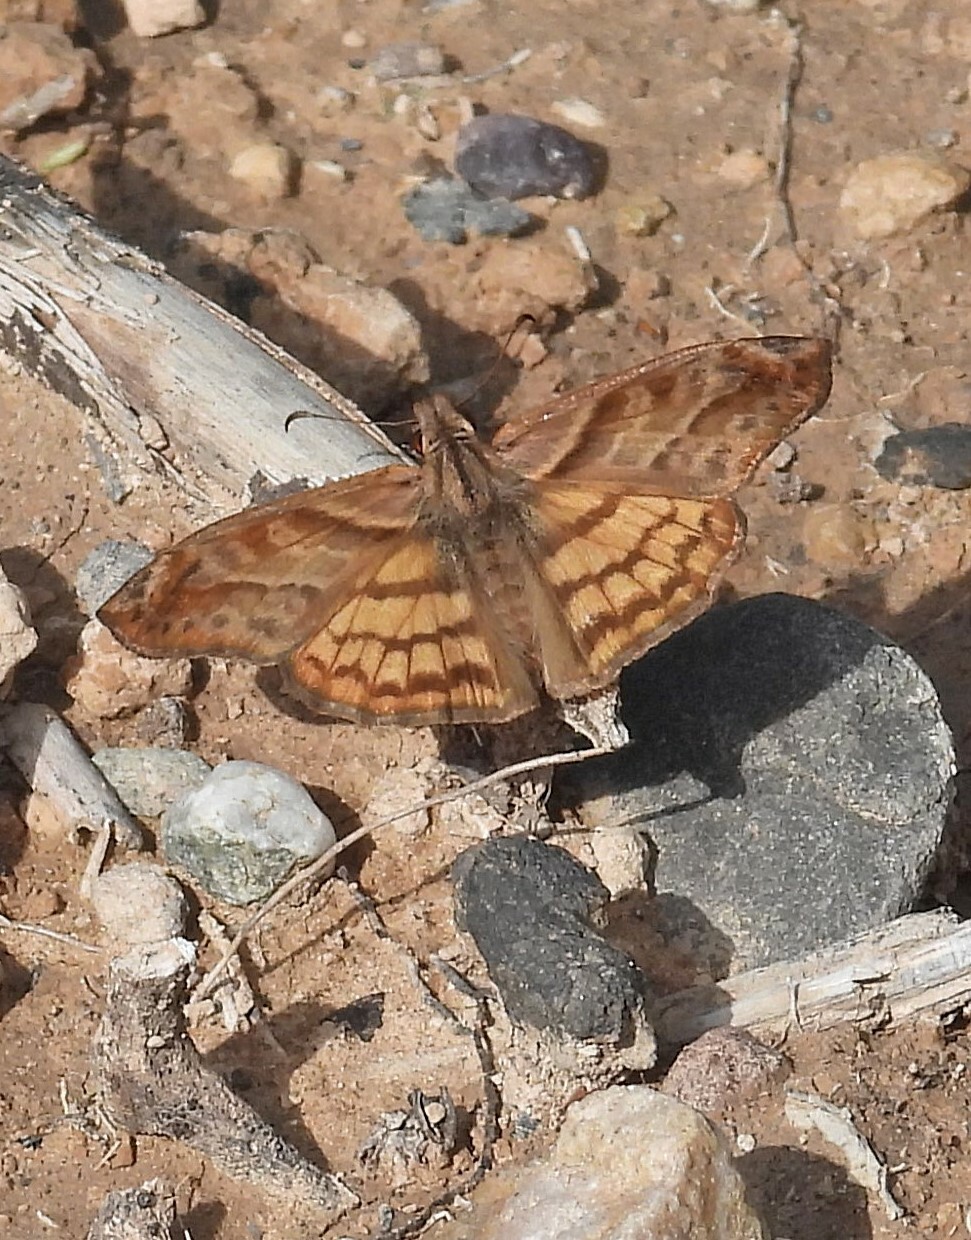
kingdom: Animalia
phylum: Arthropoda
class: Insecta
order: Lepidoptera
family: Hesperiidae
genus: Timochares
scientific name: Timochares trifasciata
